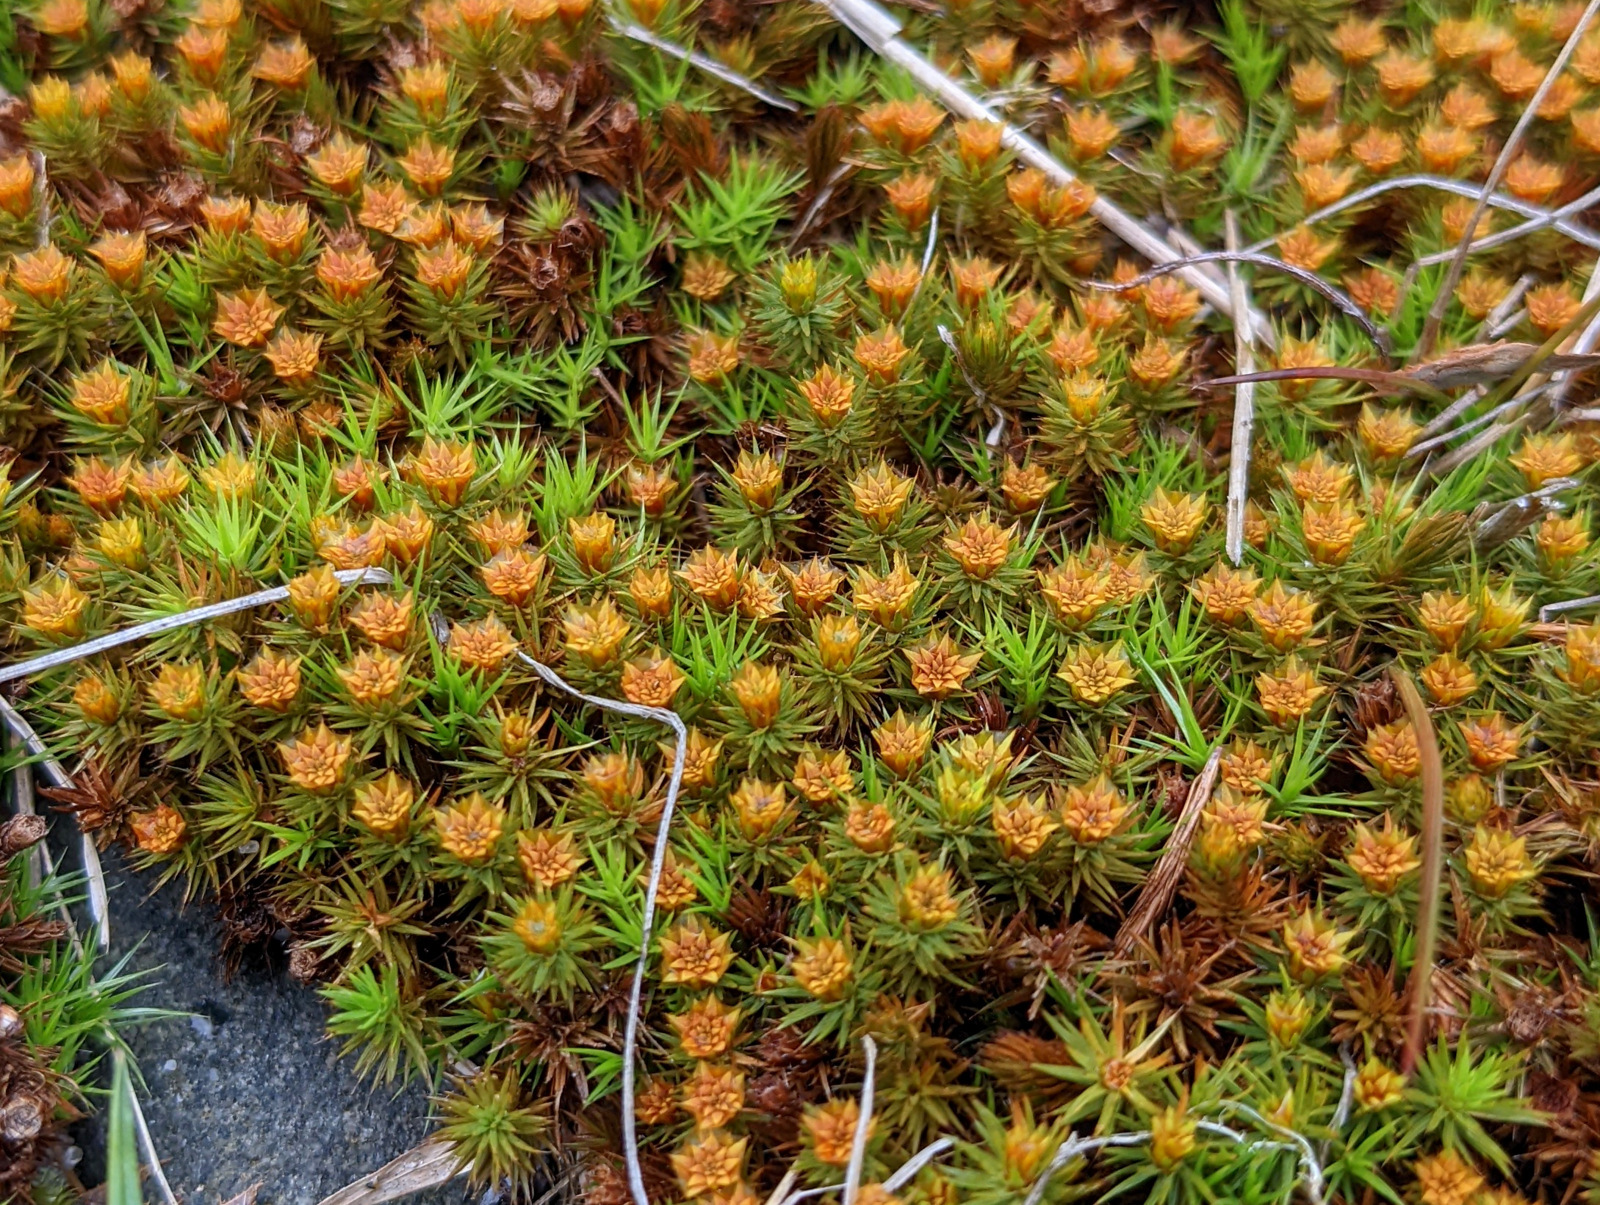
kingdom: Plantae
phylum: Bryophyta
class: Polytrichopsida
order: Polytrichales
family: Polytrichaceae
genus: Polytrichum
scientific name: Polytrichum juniperinum
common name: Juniper haircap moss
